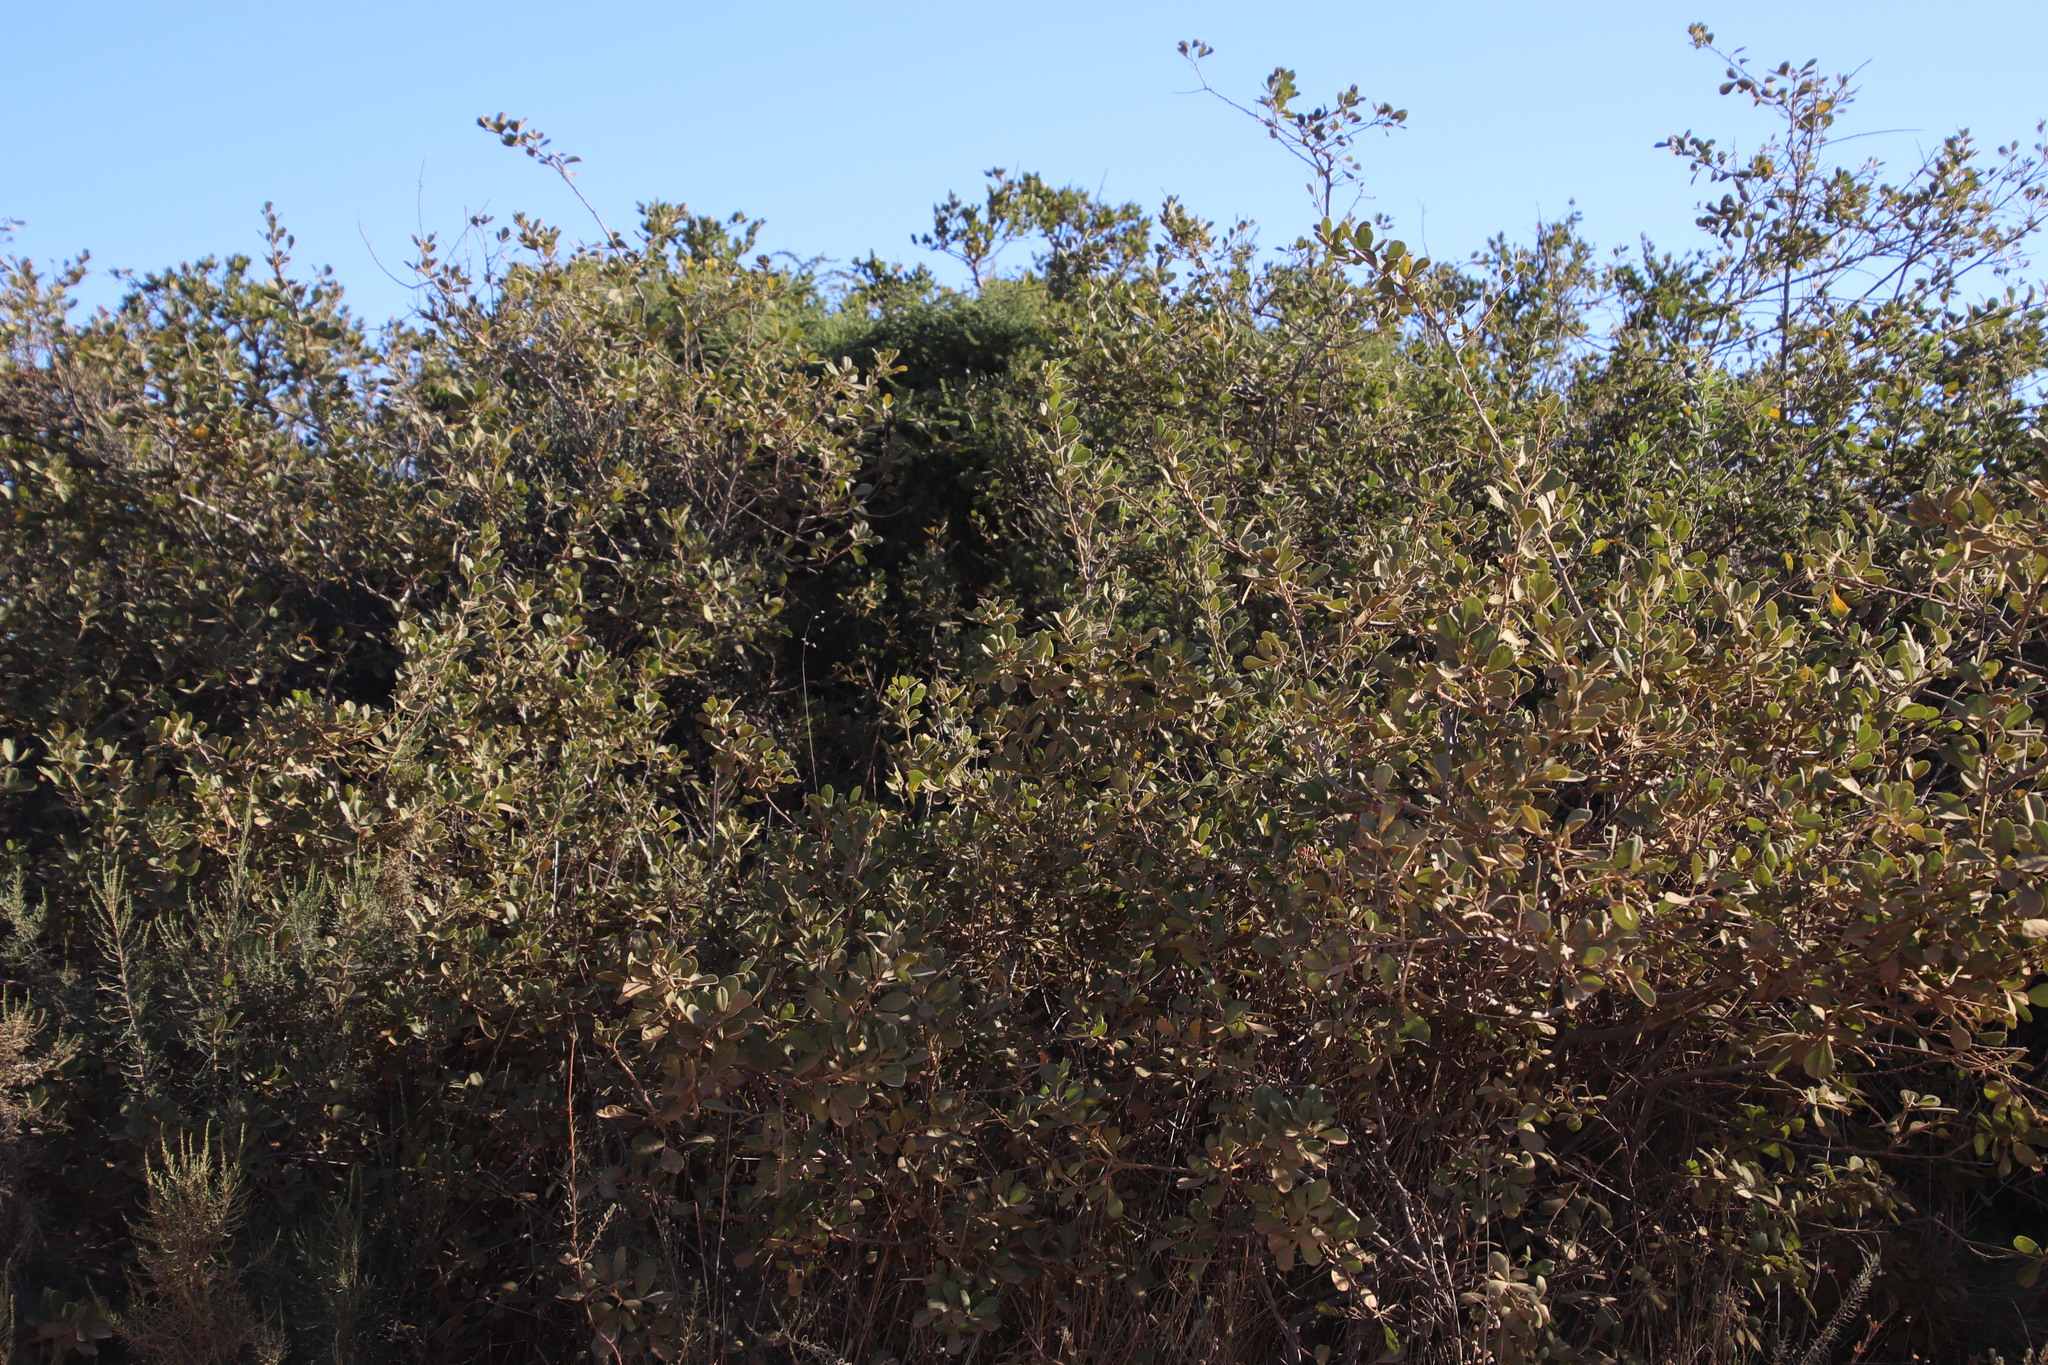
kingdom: Plantae
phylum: Tracheophyta
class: Magnoliopsida
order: Sapindales
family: Anacardiaceae
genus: Searsia
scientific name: Searsia laevigata
